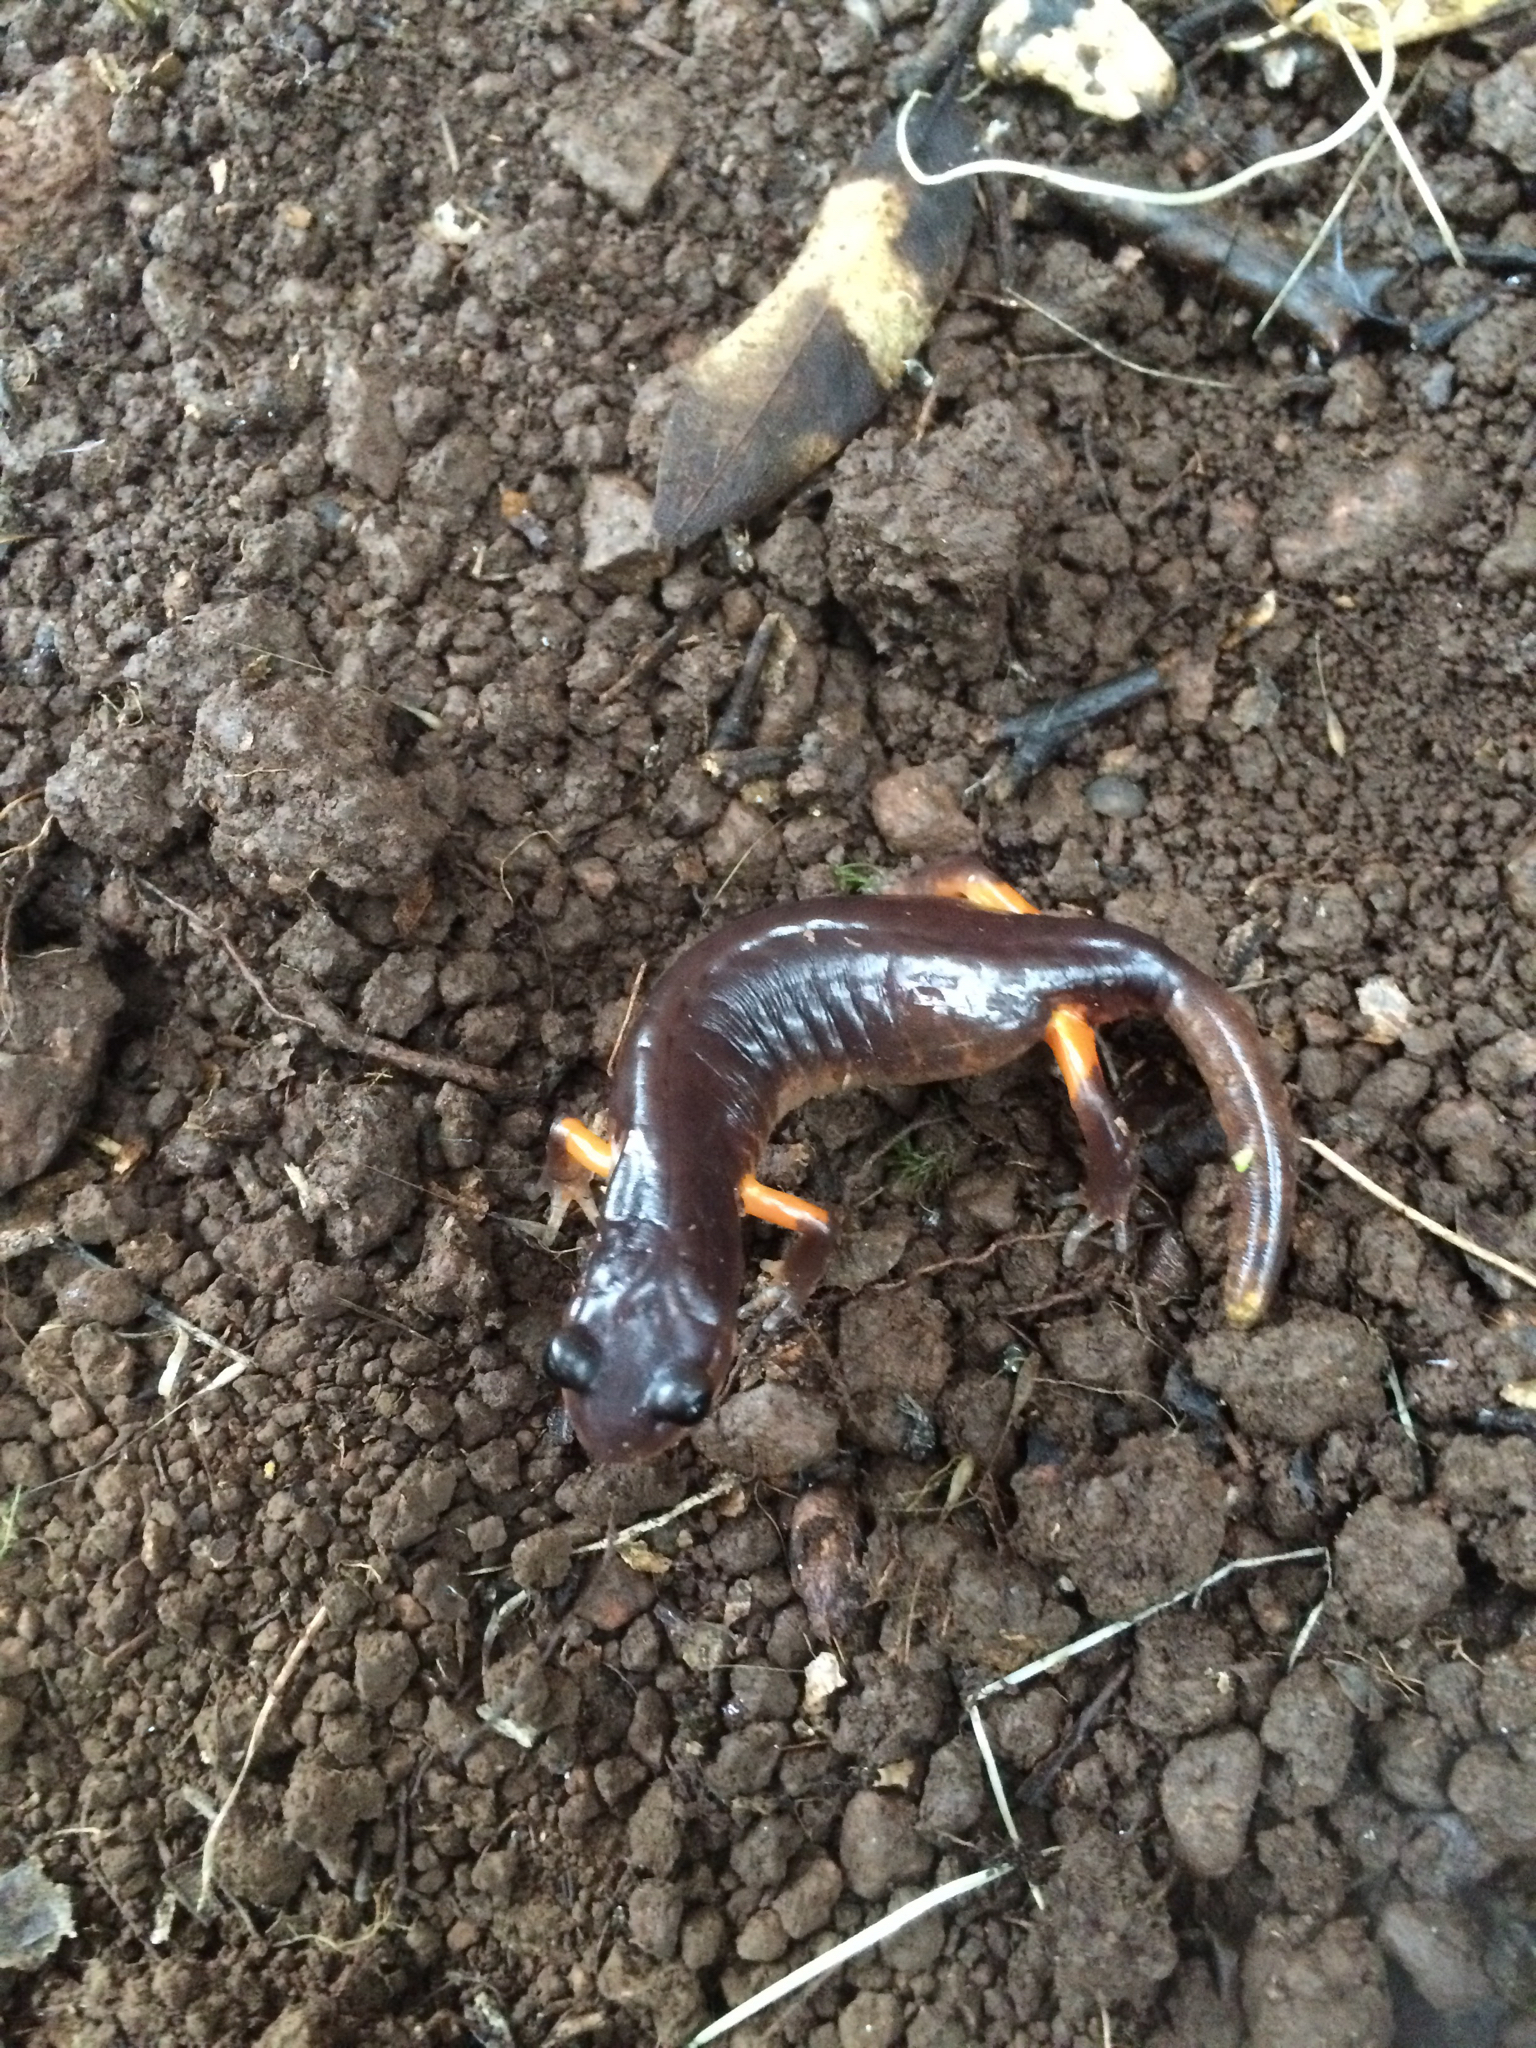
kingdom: Animalia
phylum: Chordata
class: Amphibia
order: Caudata
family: Plethodontidae
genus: Ensatina
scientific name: Ensatina eschscholtzii
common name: Ensatina
